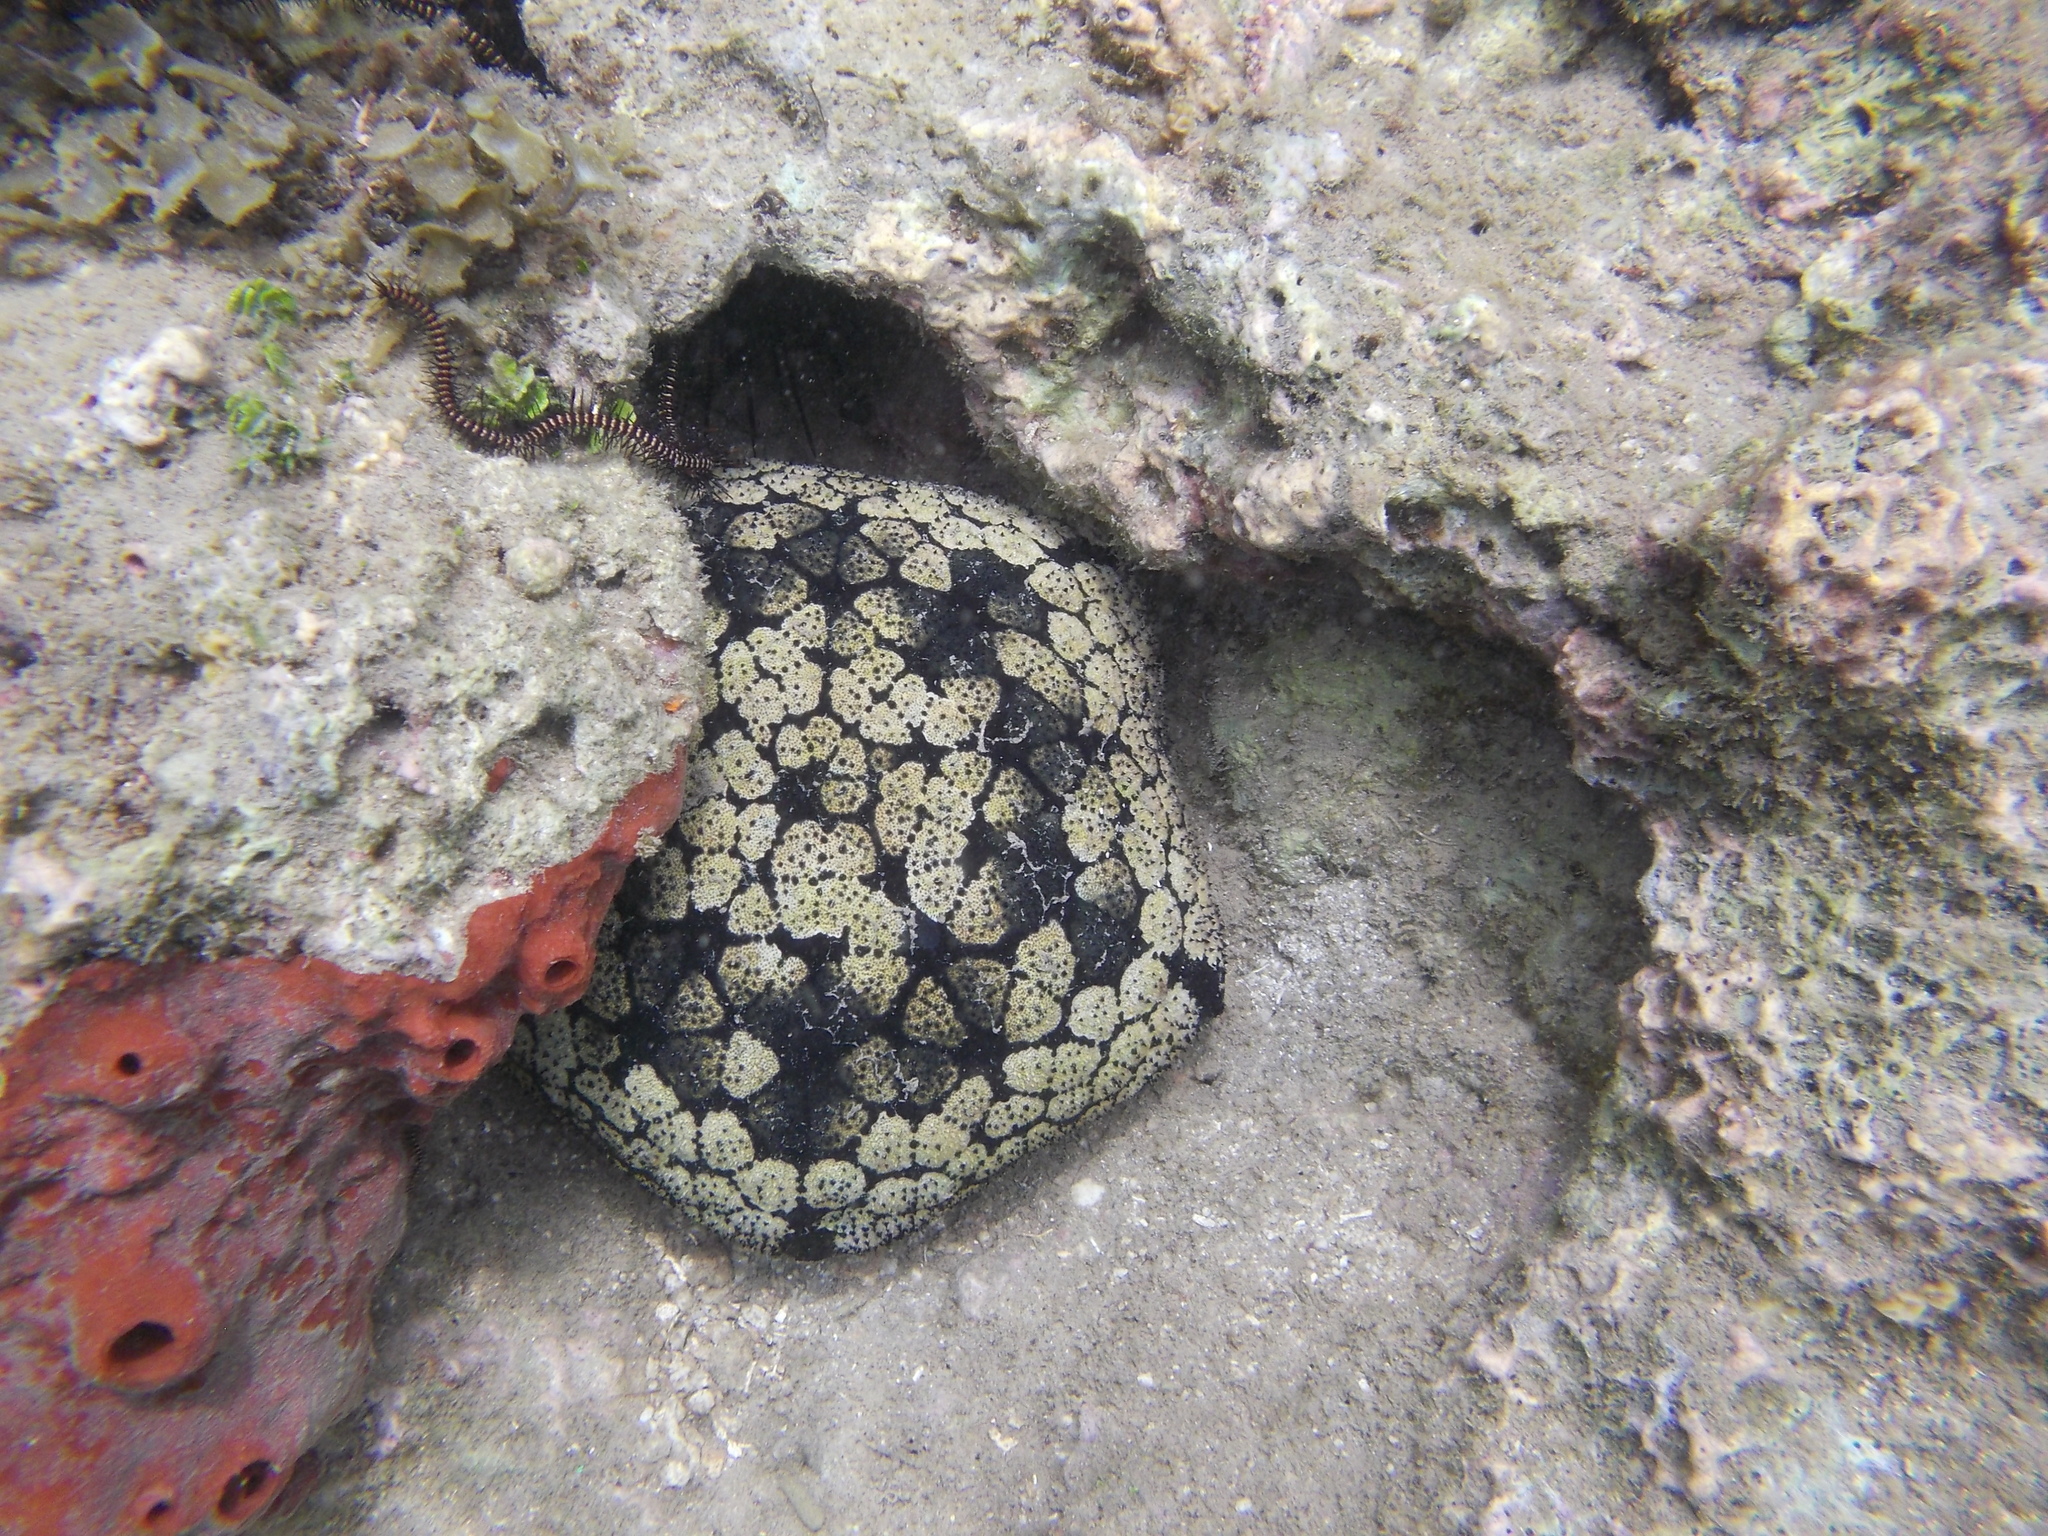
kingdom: Animalia
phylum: Echinodermata
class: Asteroidea
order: Valvatida
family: Oreasteridae
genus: Culcita
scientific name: Culcita novaeguineae
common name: Cushion star
